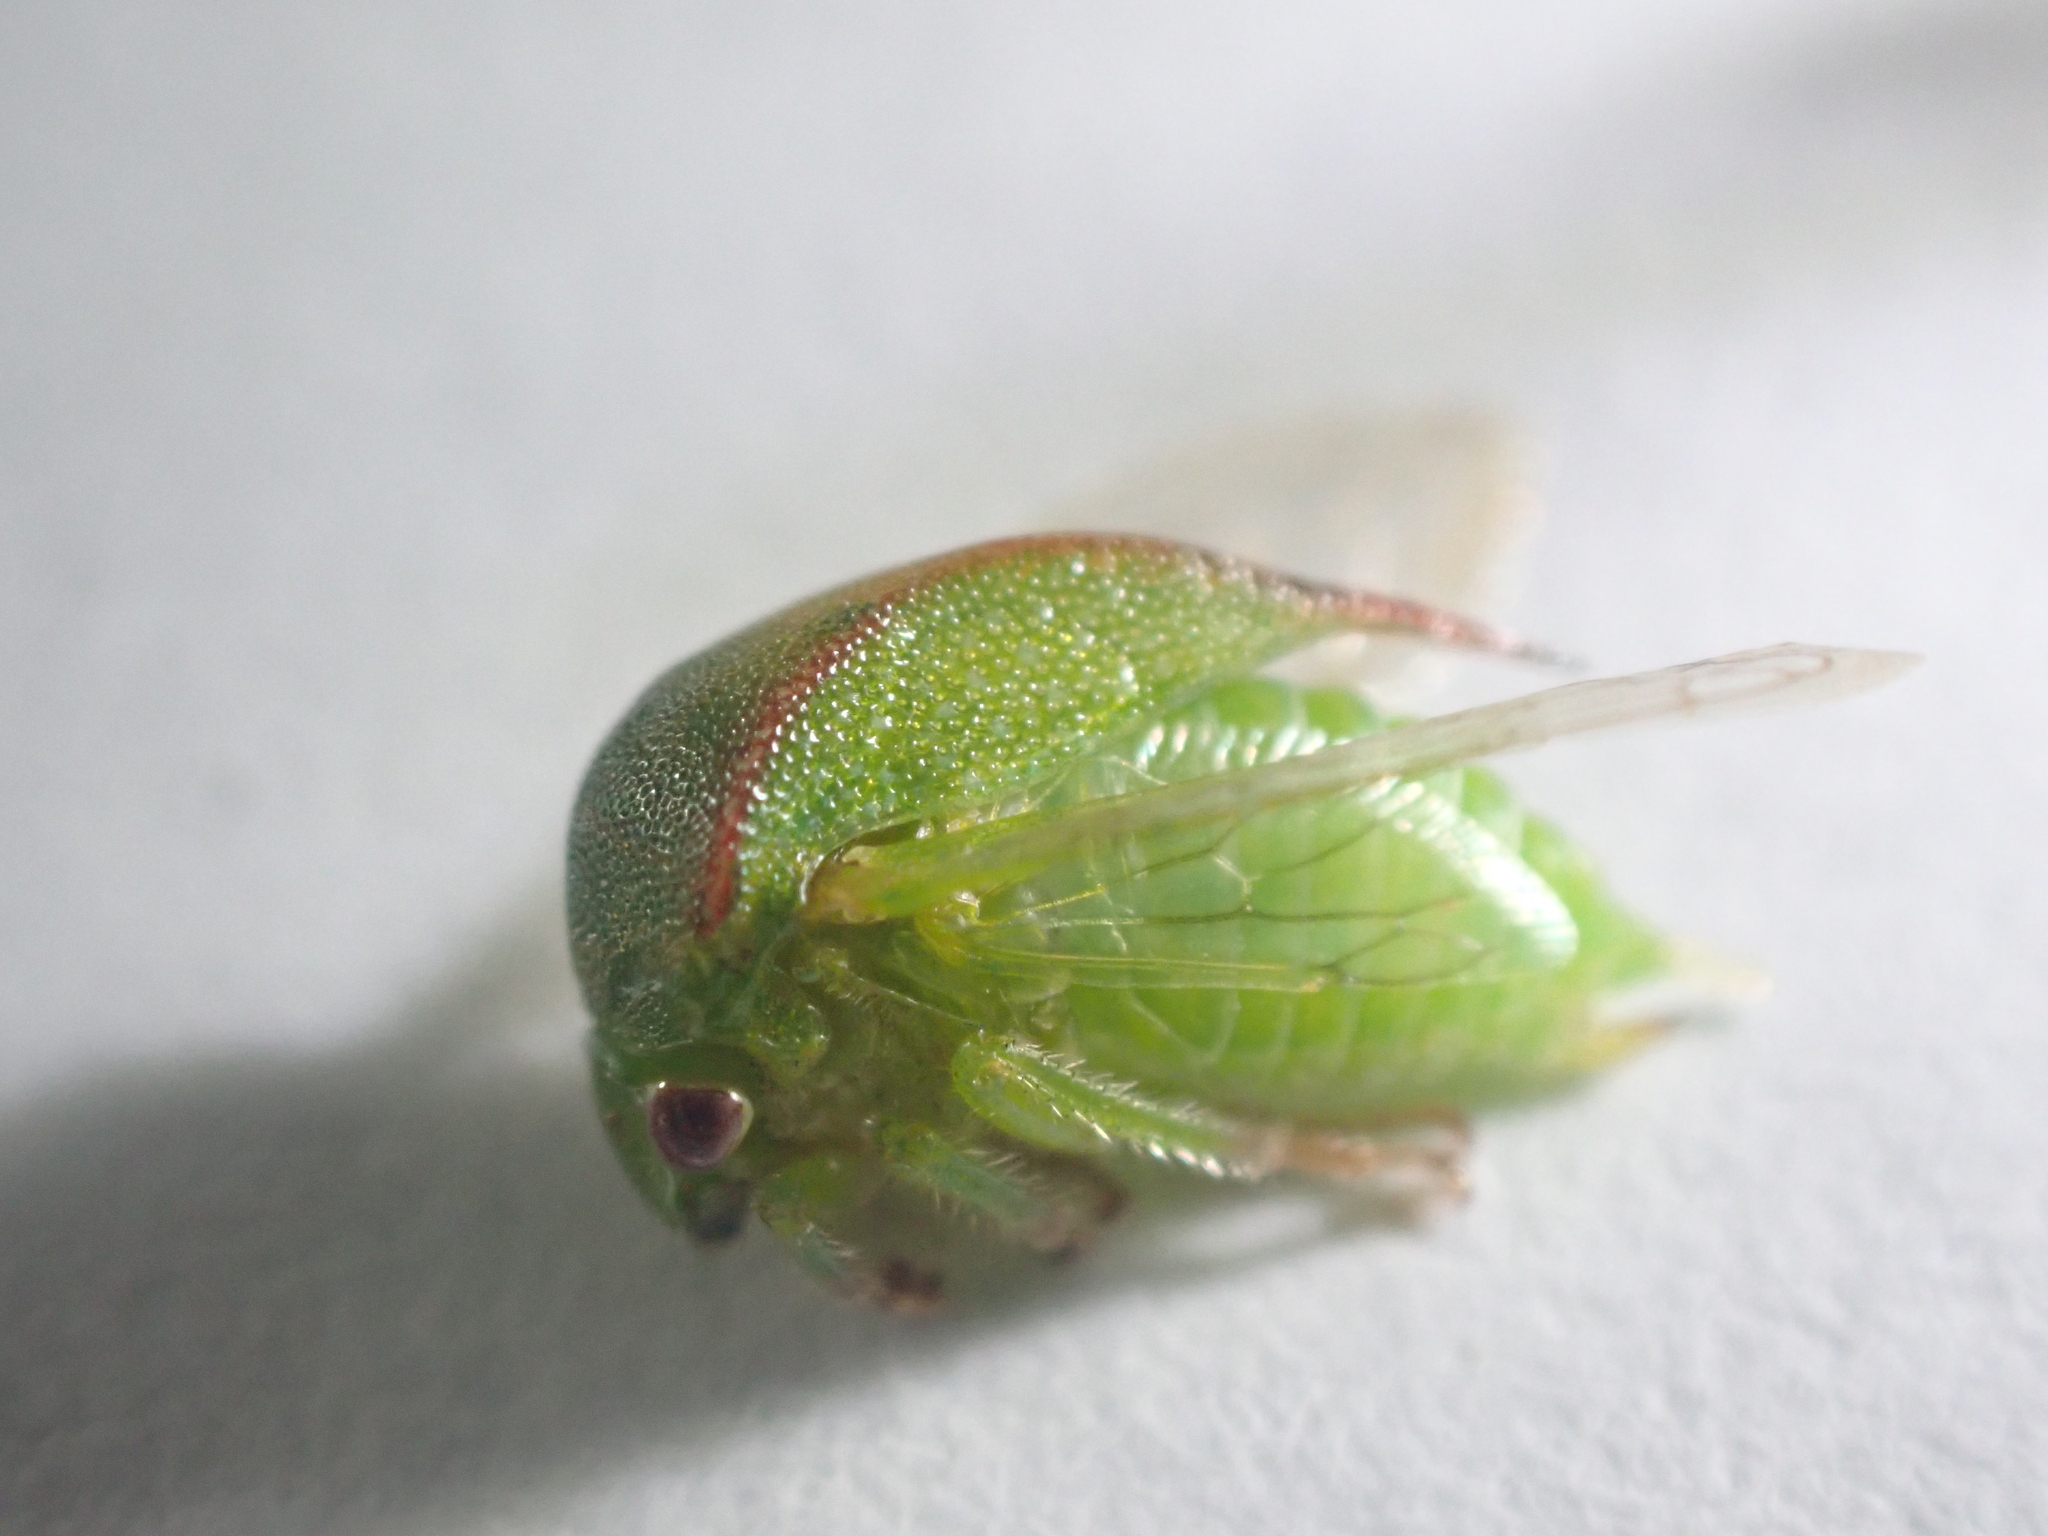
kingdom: Animalia
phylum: Arthropoda
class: Insecta
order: Hemiptera
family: Membracidae
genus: Spissistilus
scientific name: Spissistilus festina
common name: Membracid bug
